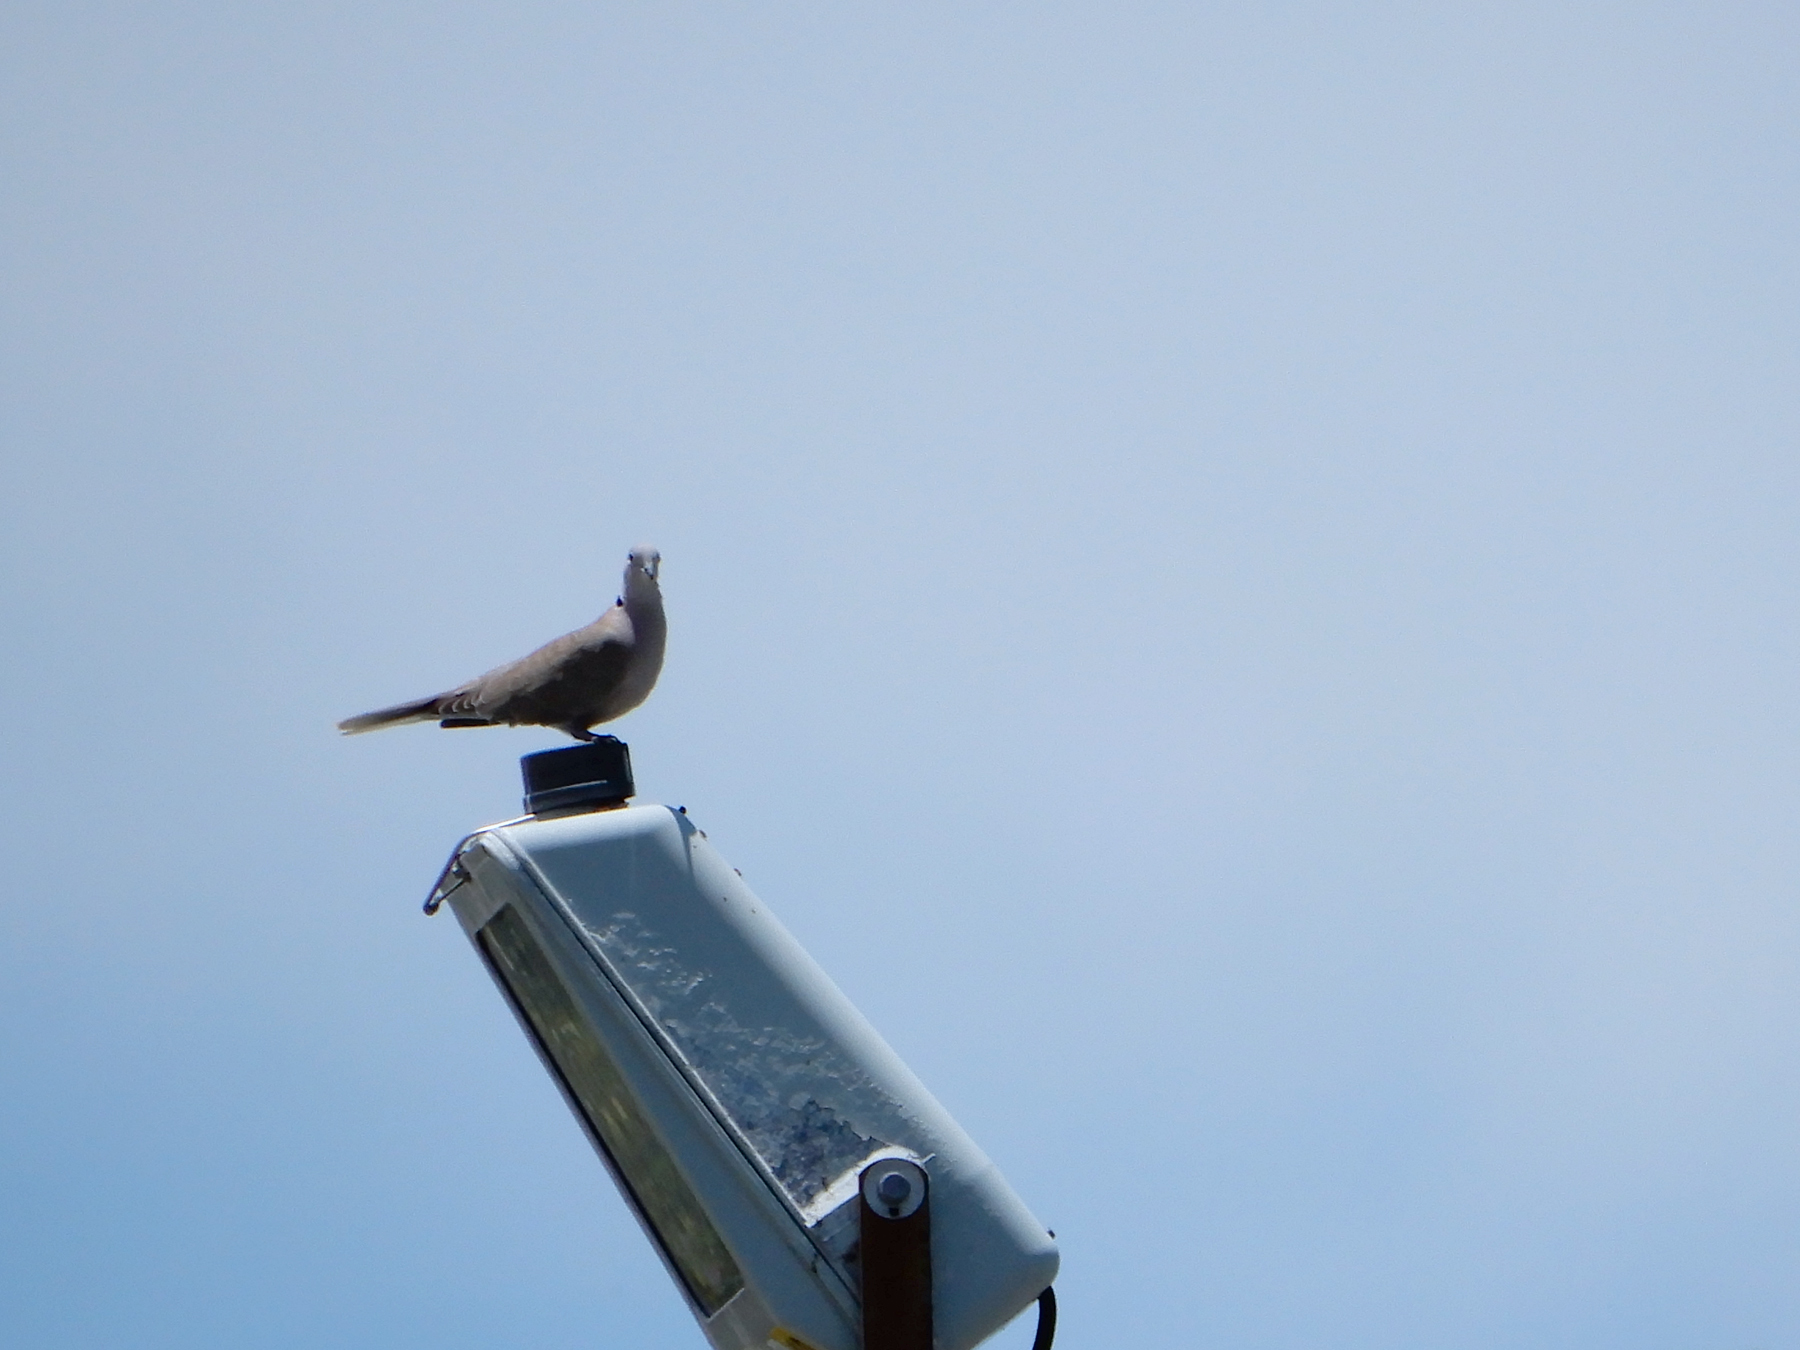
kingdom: Animalia
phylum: Chordata
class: Aves
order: Columbiformes
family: Columbidae
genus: Streptopelia
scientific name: Streptopelia decaocto
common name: Eurasian collared dove
